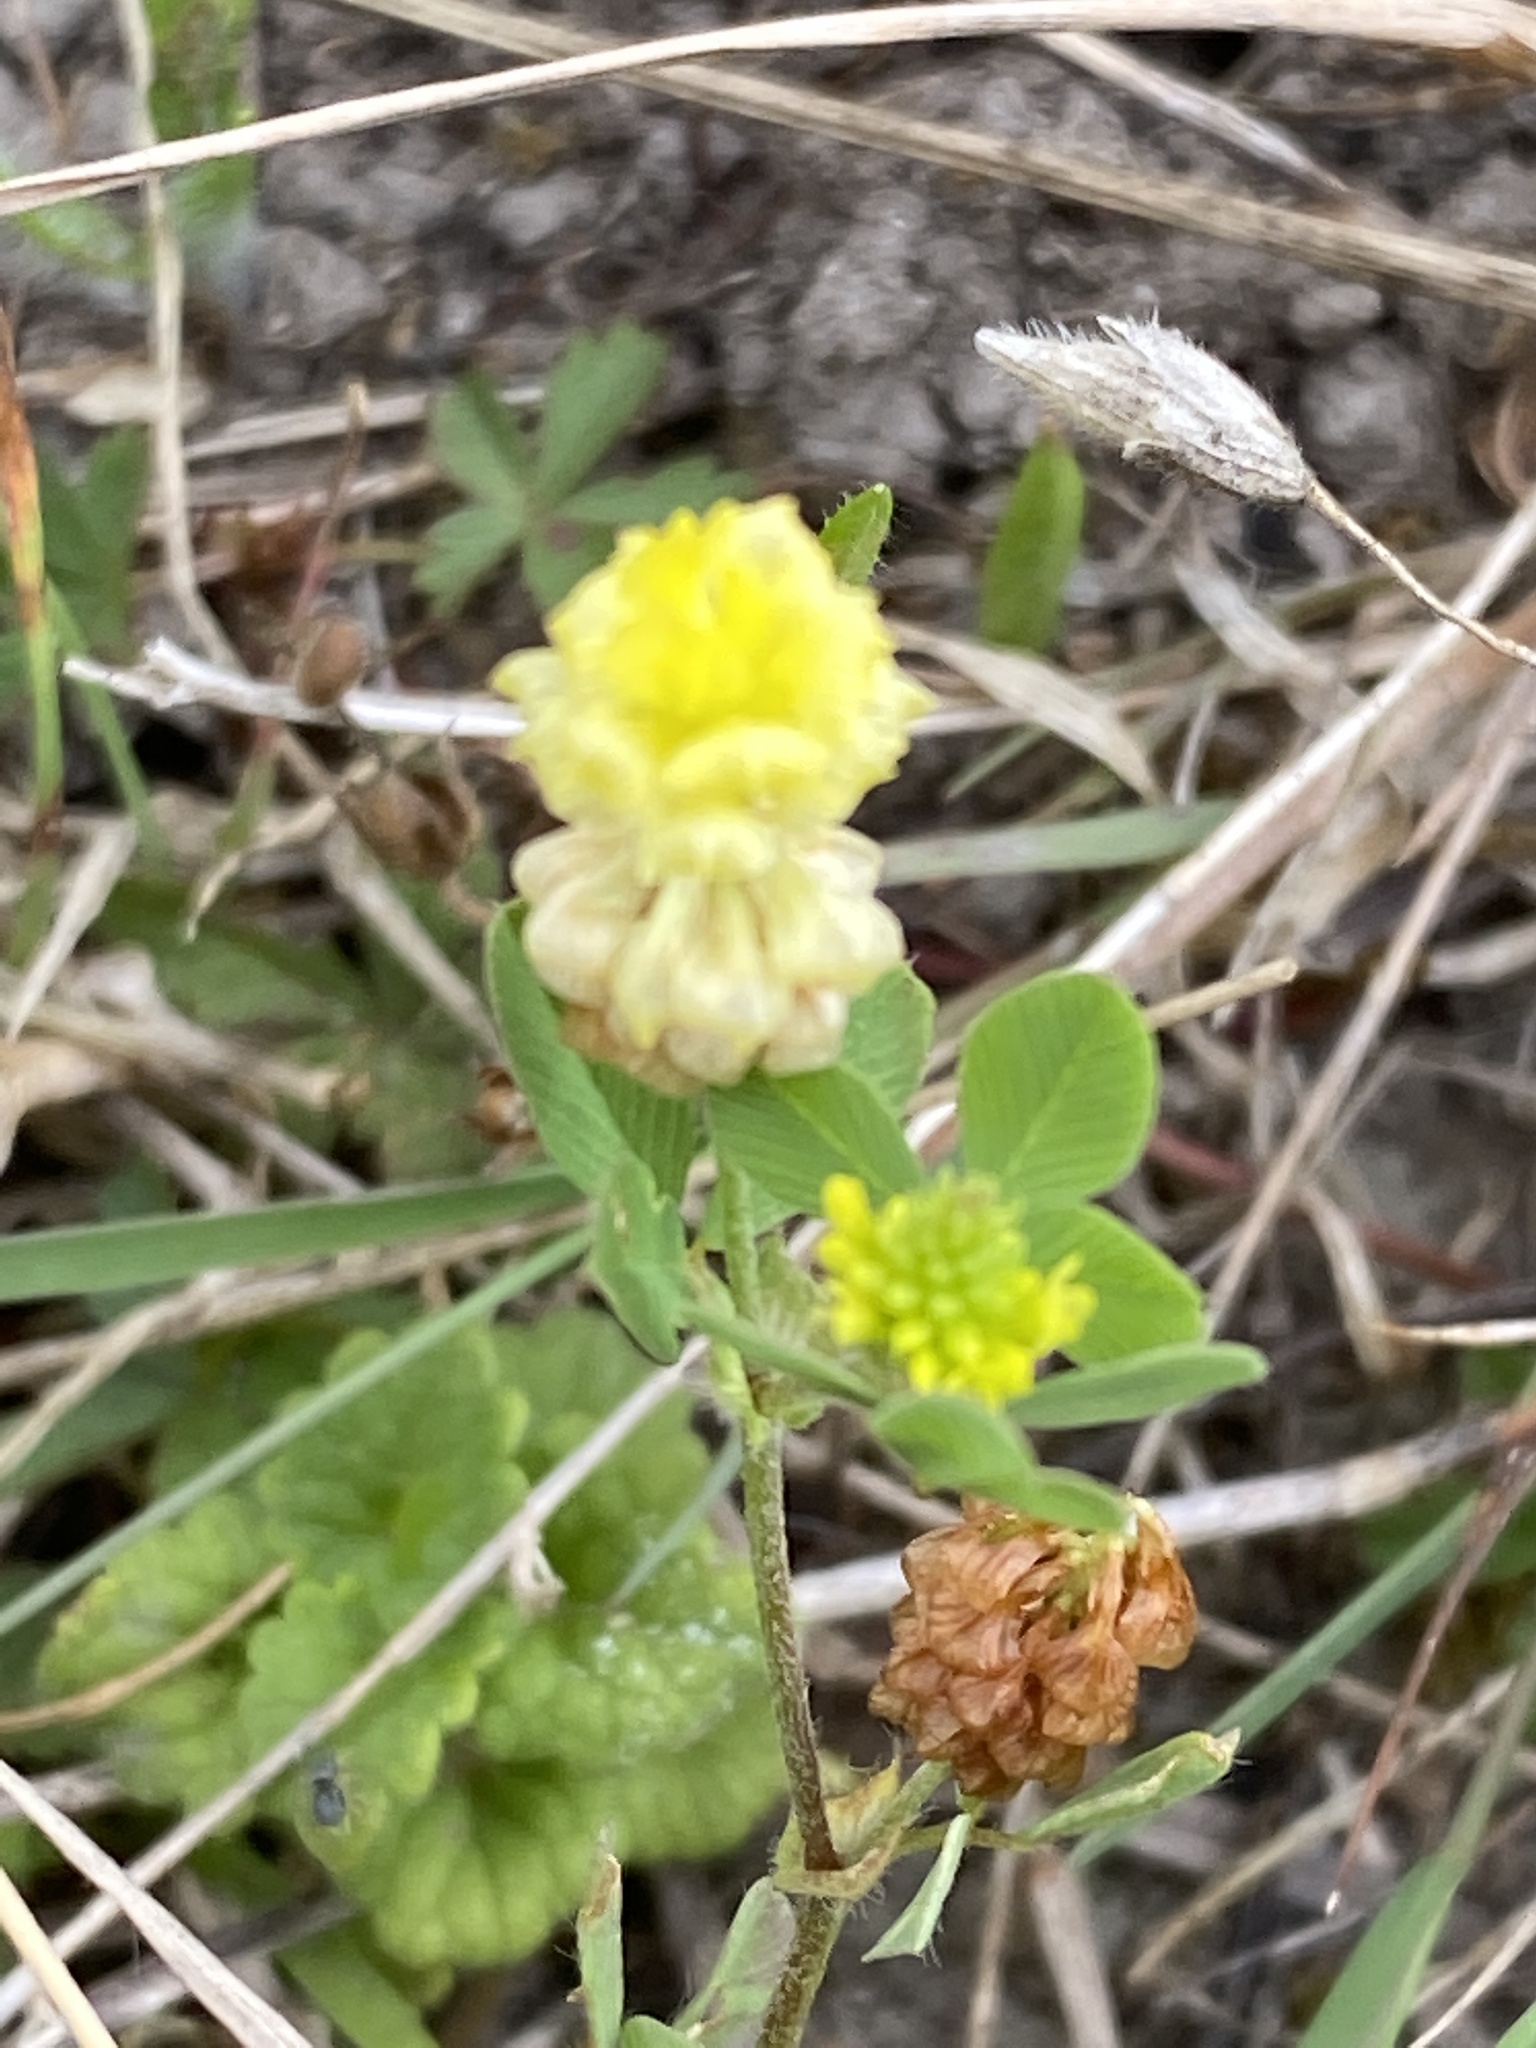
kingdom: Plantae
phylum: Tracheophyta
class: Magnoliopsida
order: Fabales
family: Fabaceae
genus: Trifolium
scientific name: Trifolium campestre
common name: Field clover
